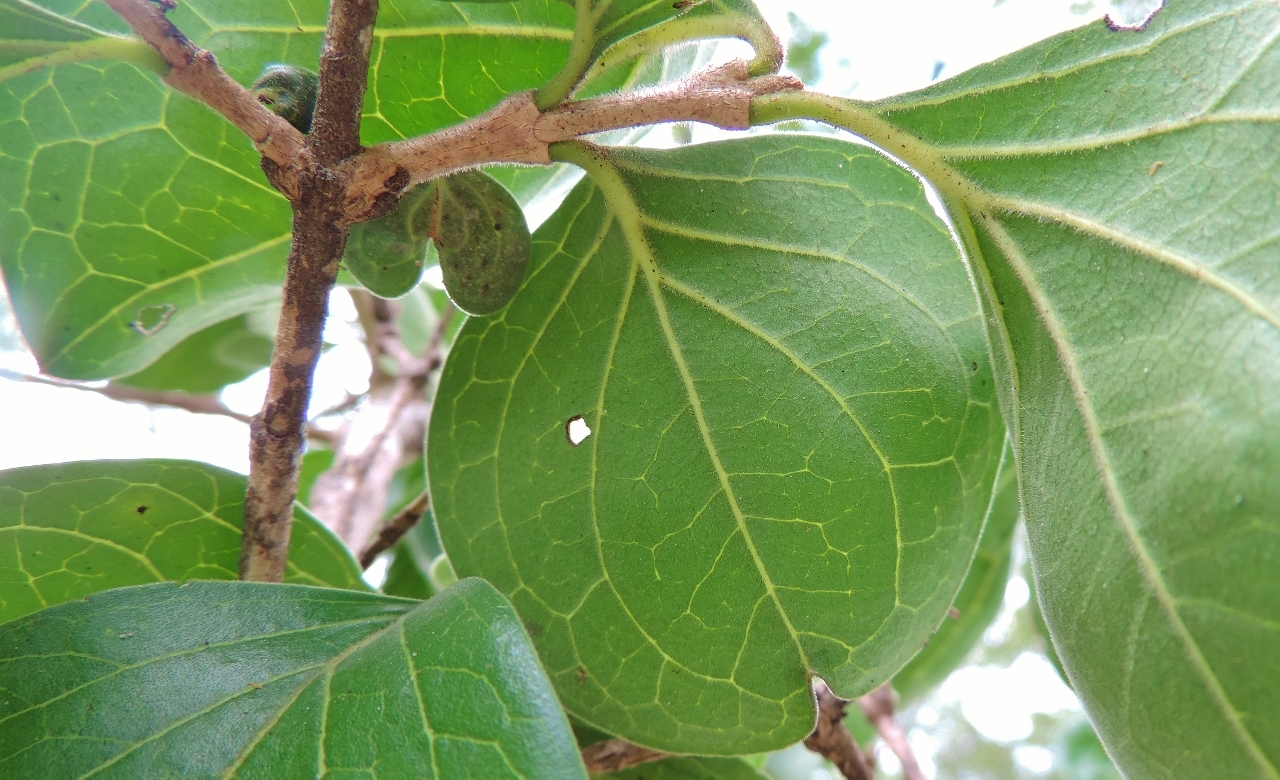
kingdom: Plantae
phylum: Tracheophyta
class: Magnoliopsida
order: Gentianales
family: Loganiaceae
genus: Strychnos
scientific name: Strychnos spinosa
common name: Natal orange
